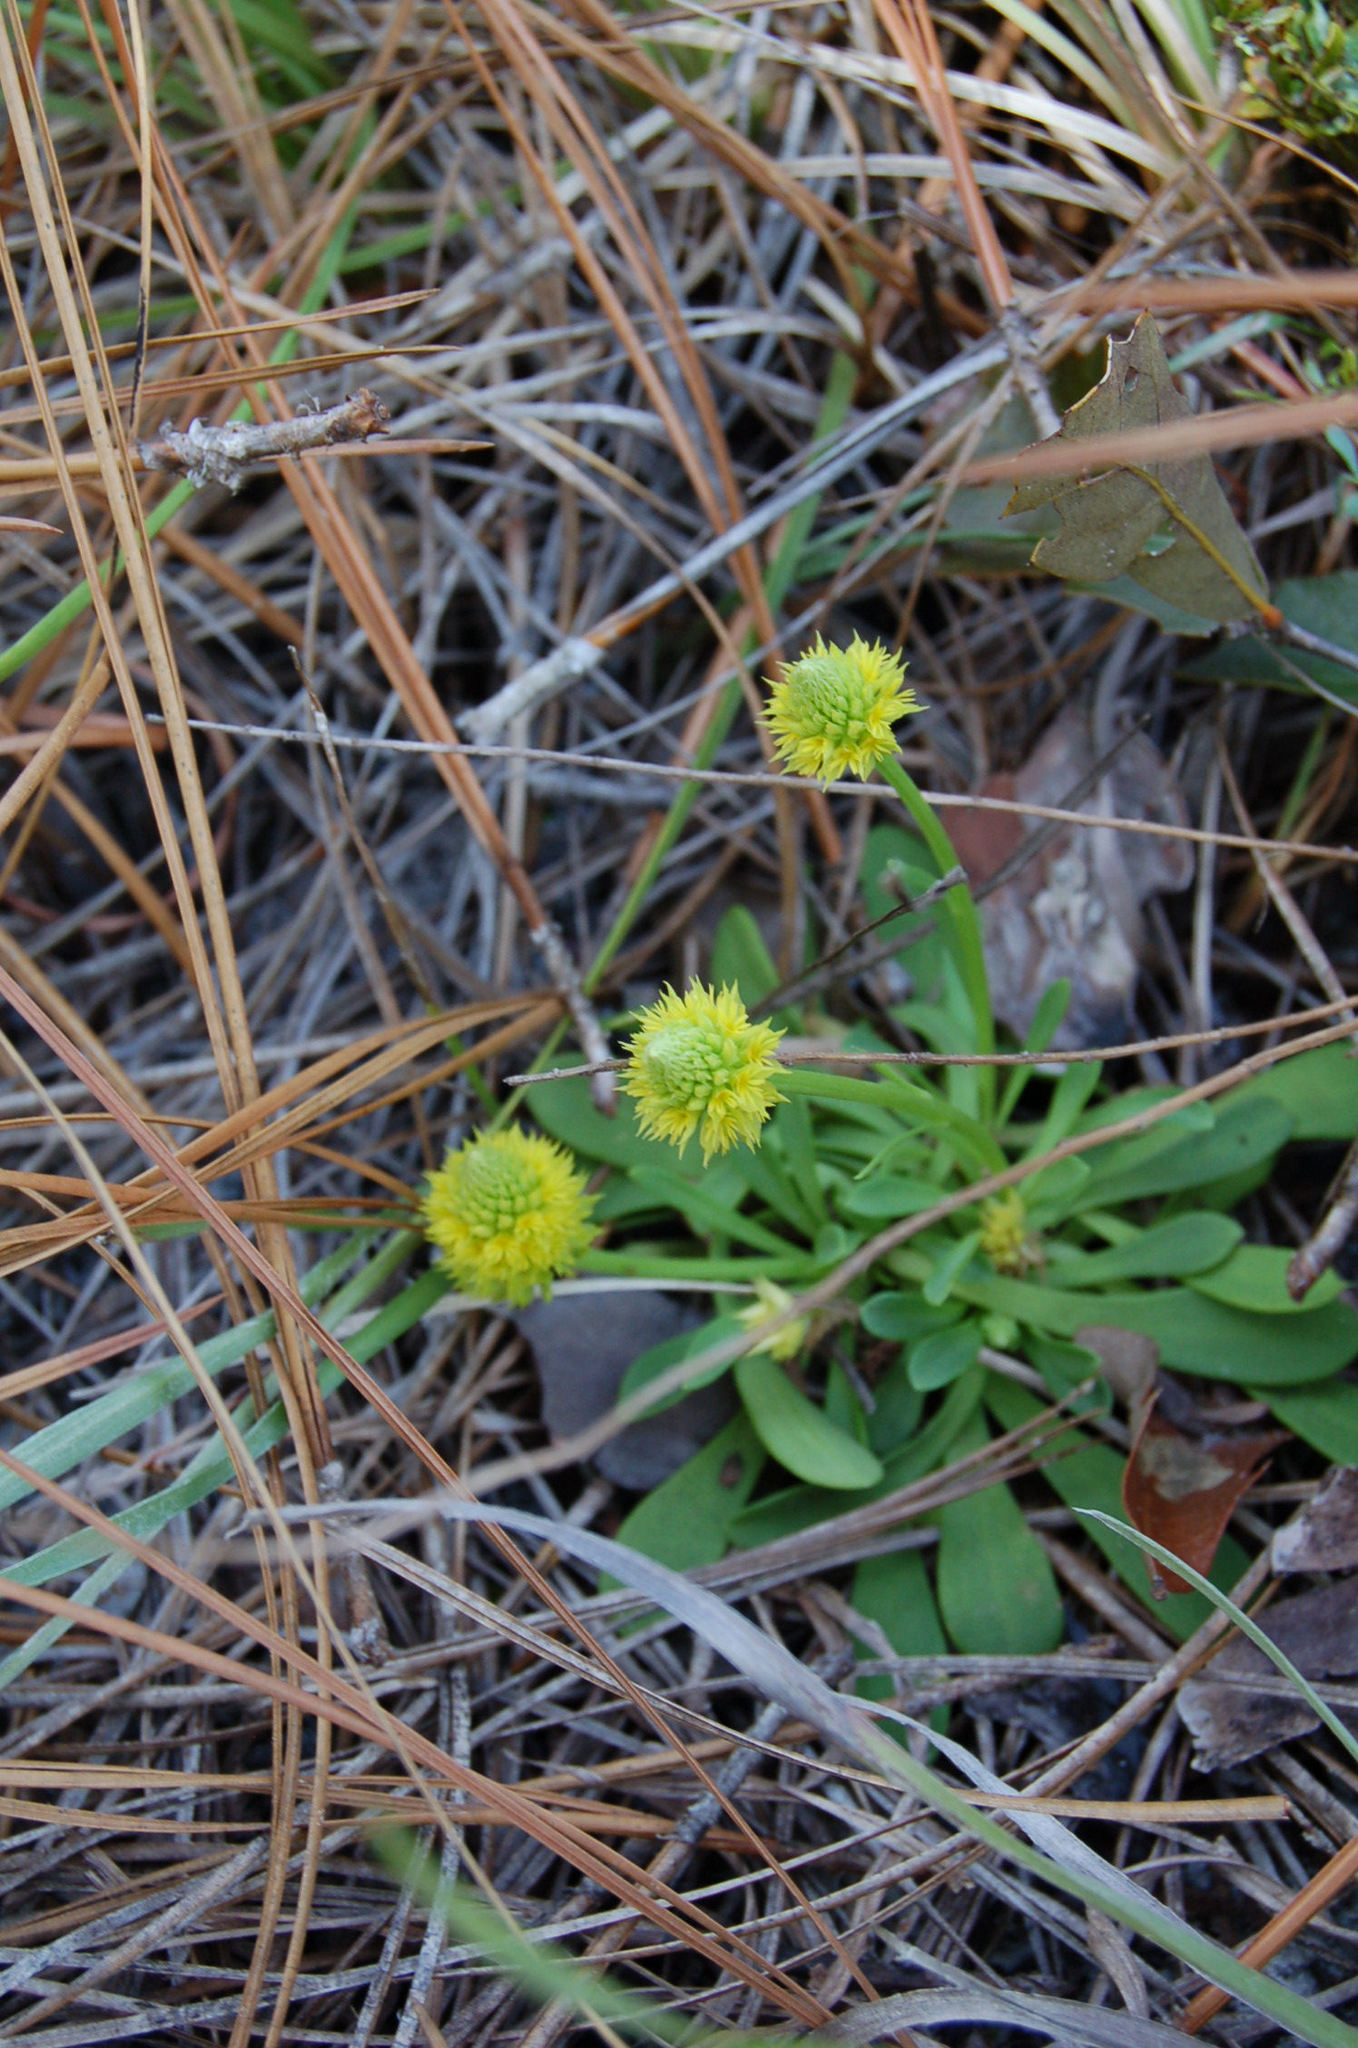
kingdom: Plantae
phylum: Tracheophyta
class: Magnoliopsida
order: Fabales
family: Polygalaceae
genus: Polygala
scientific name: Polygala nana
